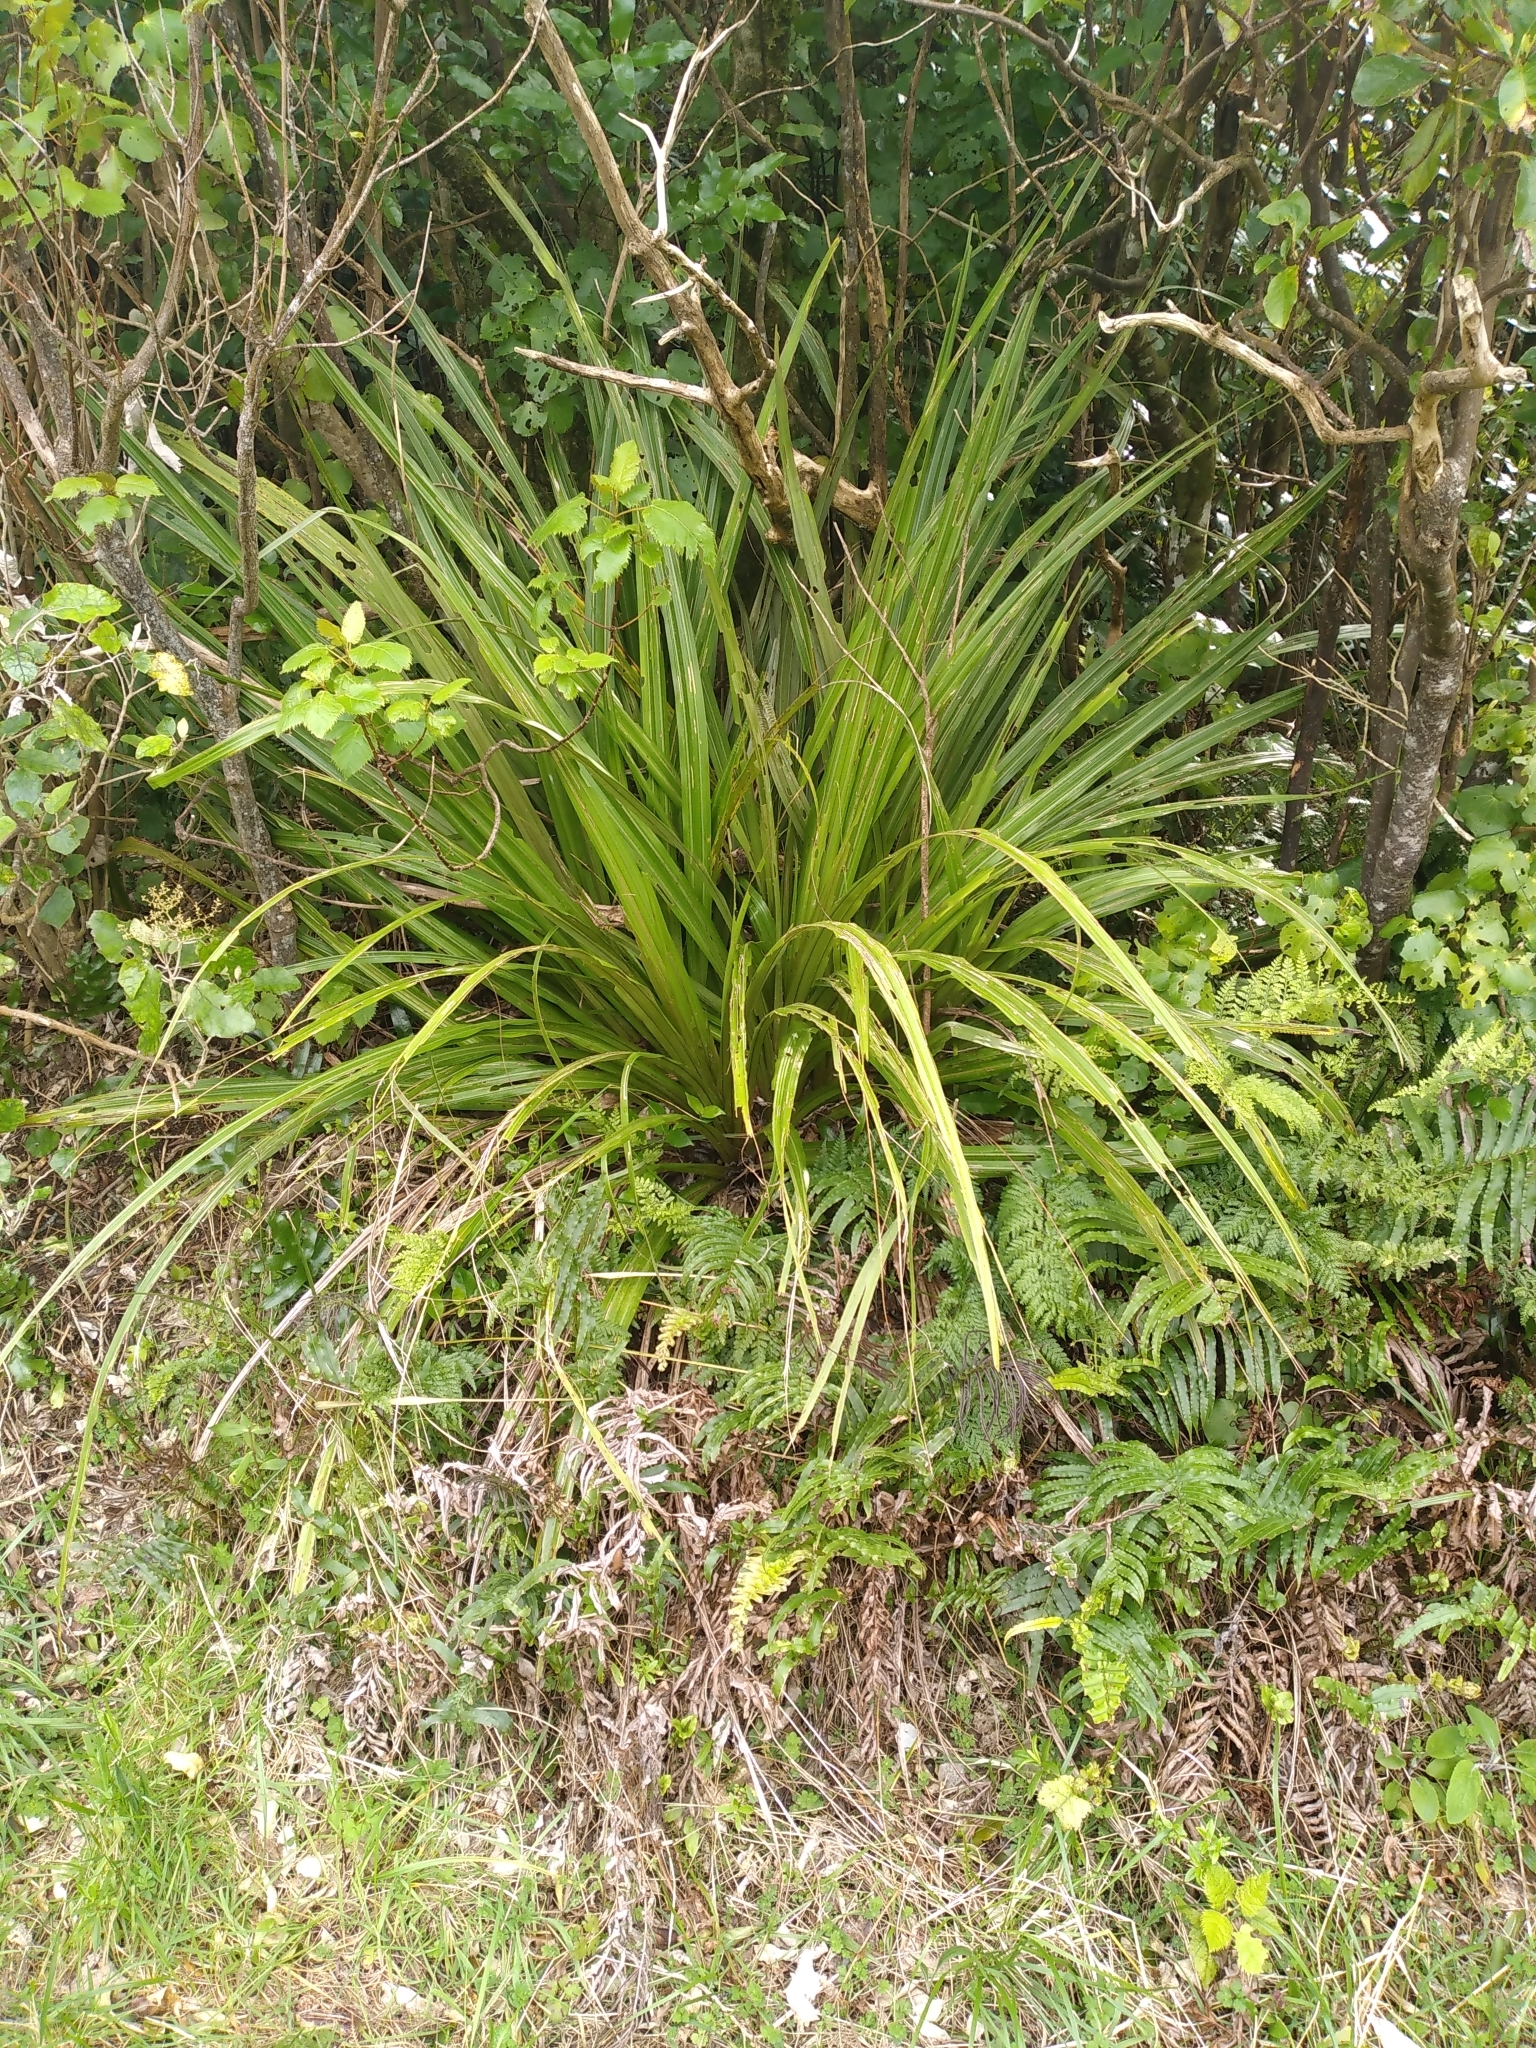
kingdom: Plantae
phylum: Tracheophyta
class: Liliopsida
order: Asparagales
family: Asteliaceae
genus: Astelia
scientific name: Astelia fragrans
